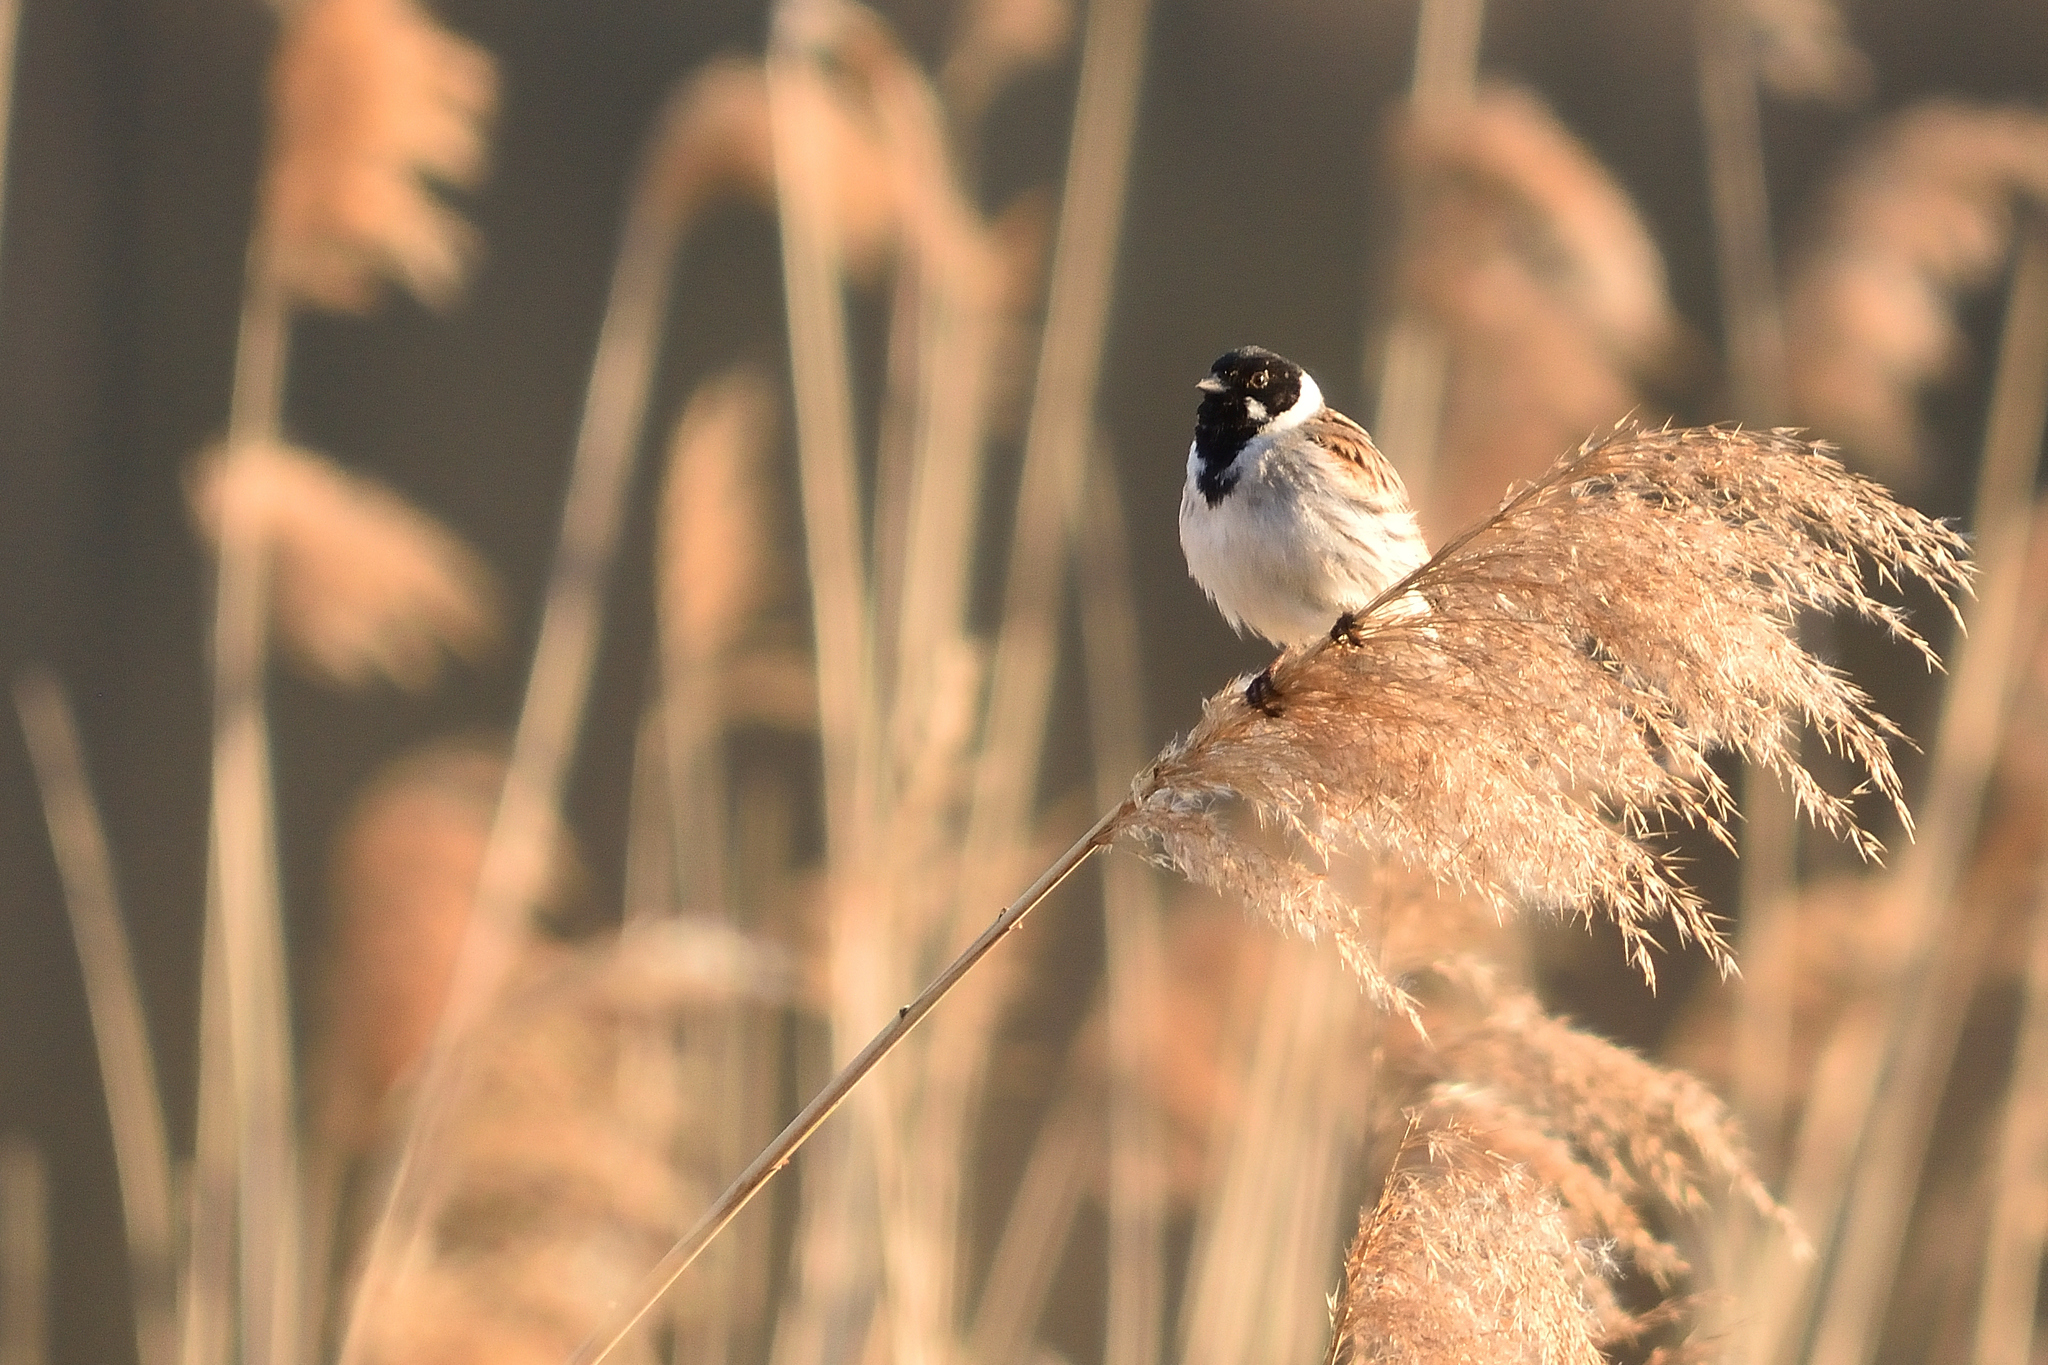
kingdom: Animalia
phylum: Chordata
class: Aves
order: Passeriformes
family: Emberizidae
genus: Emberiza
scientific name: Emberiza schoeniclus
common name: Reed bunting
